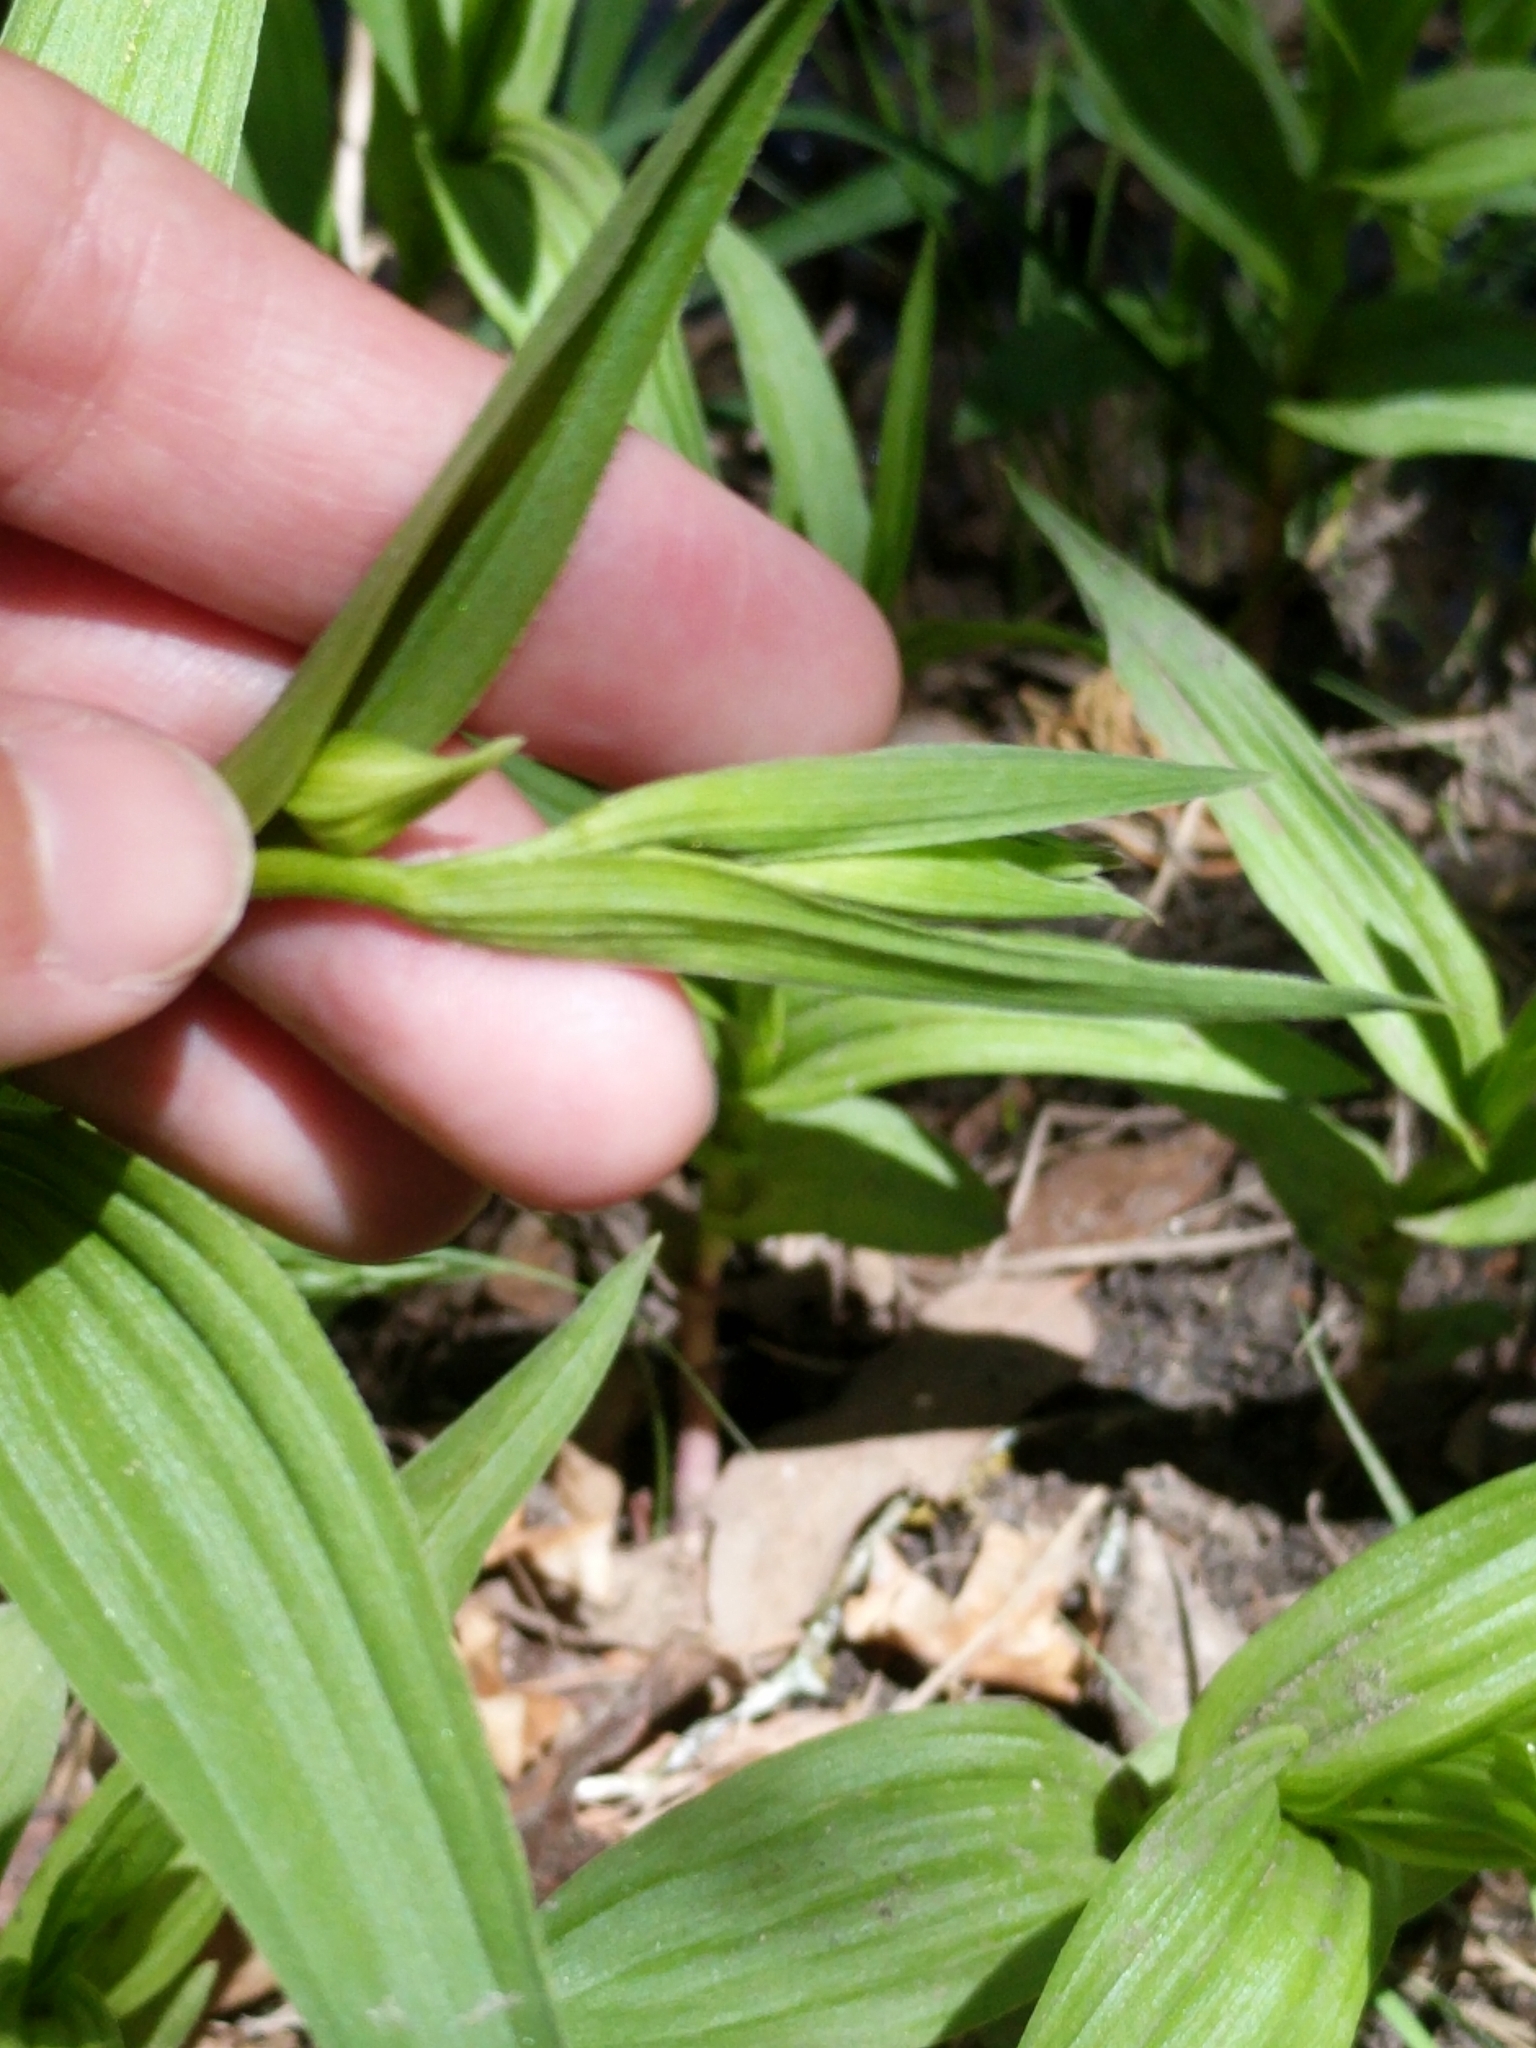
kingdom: Plantae
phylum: Tracheophyta
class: Liliopsida
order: Asparagales
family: Orchidaceae
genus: Epipactis
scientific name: Epipactis gigantea
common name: Chatterbox
